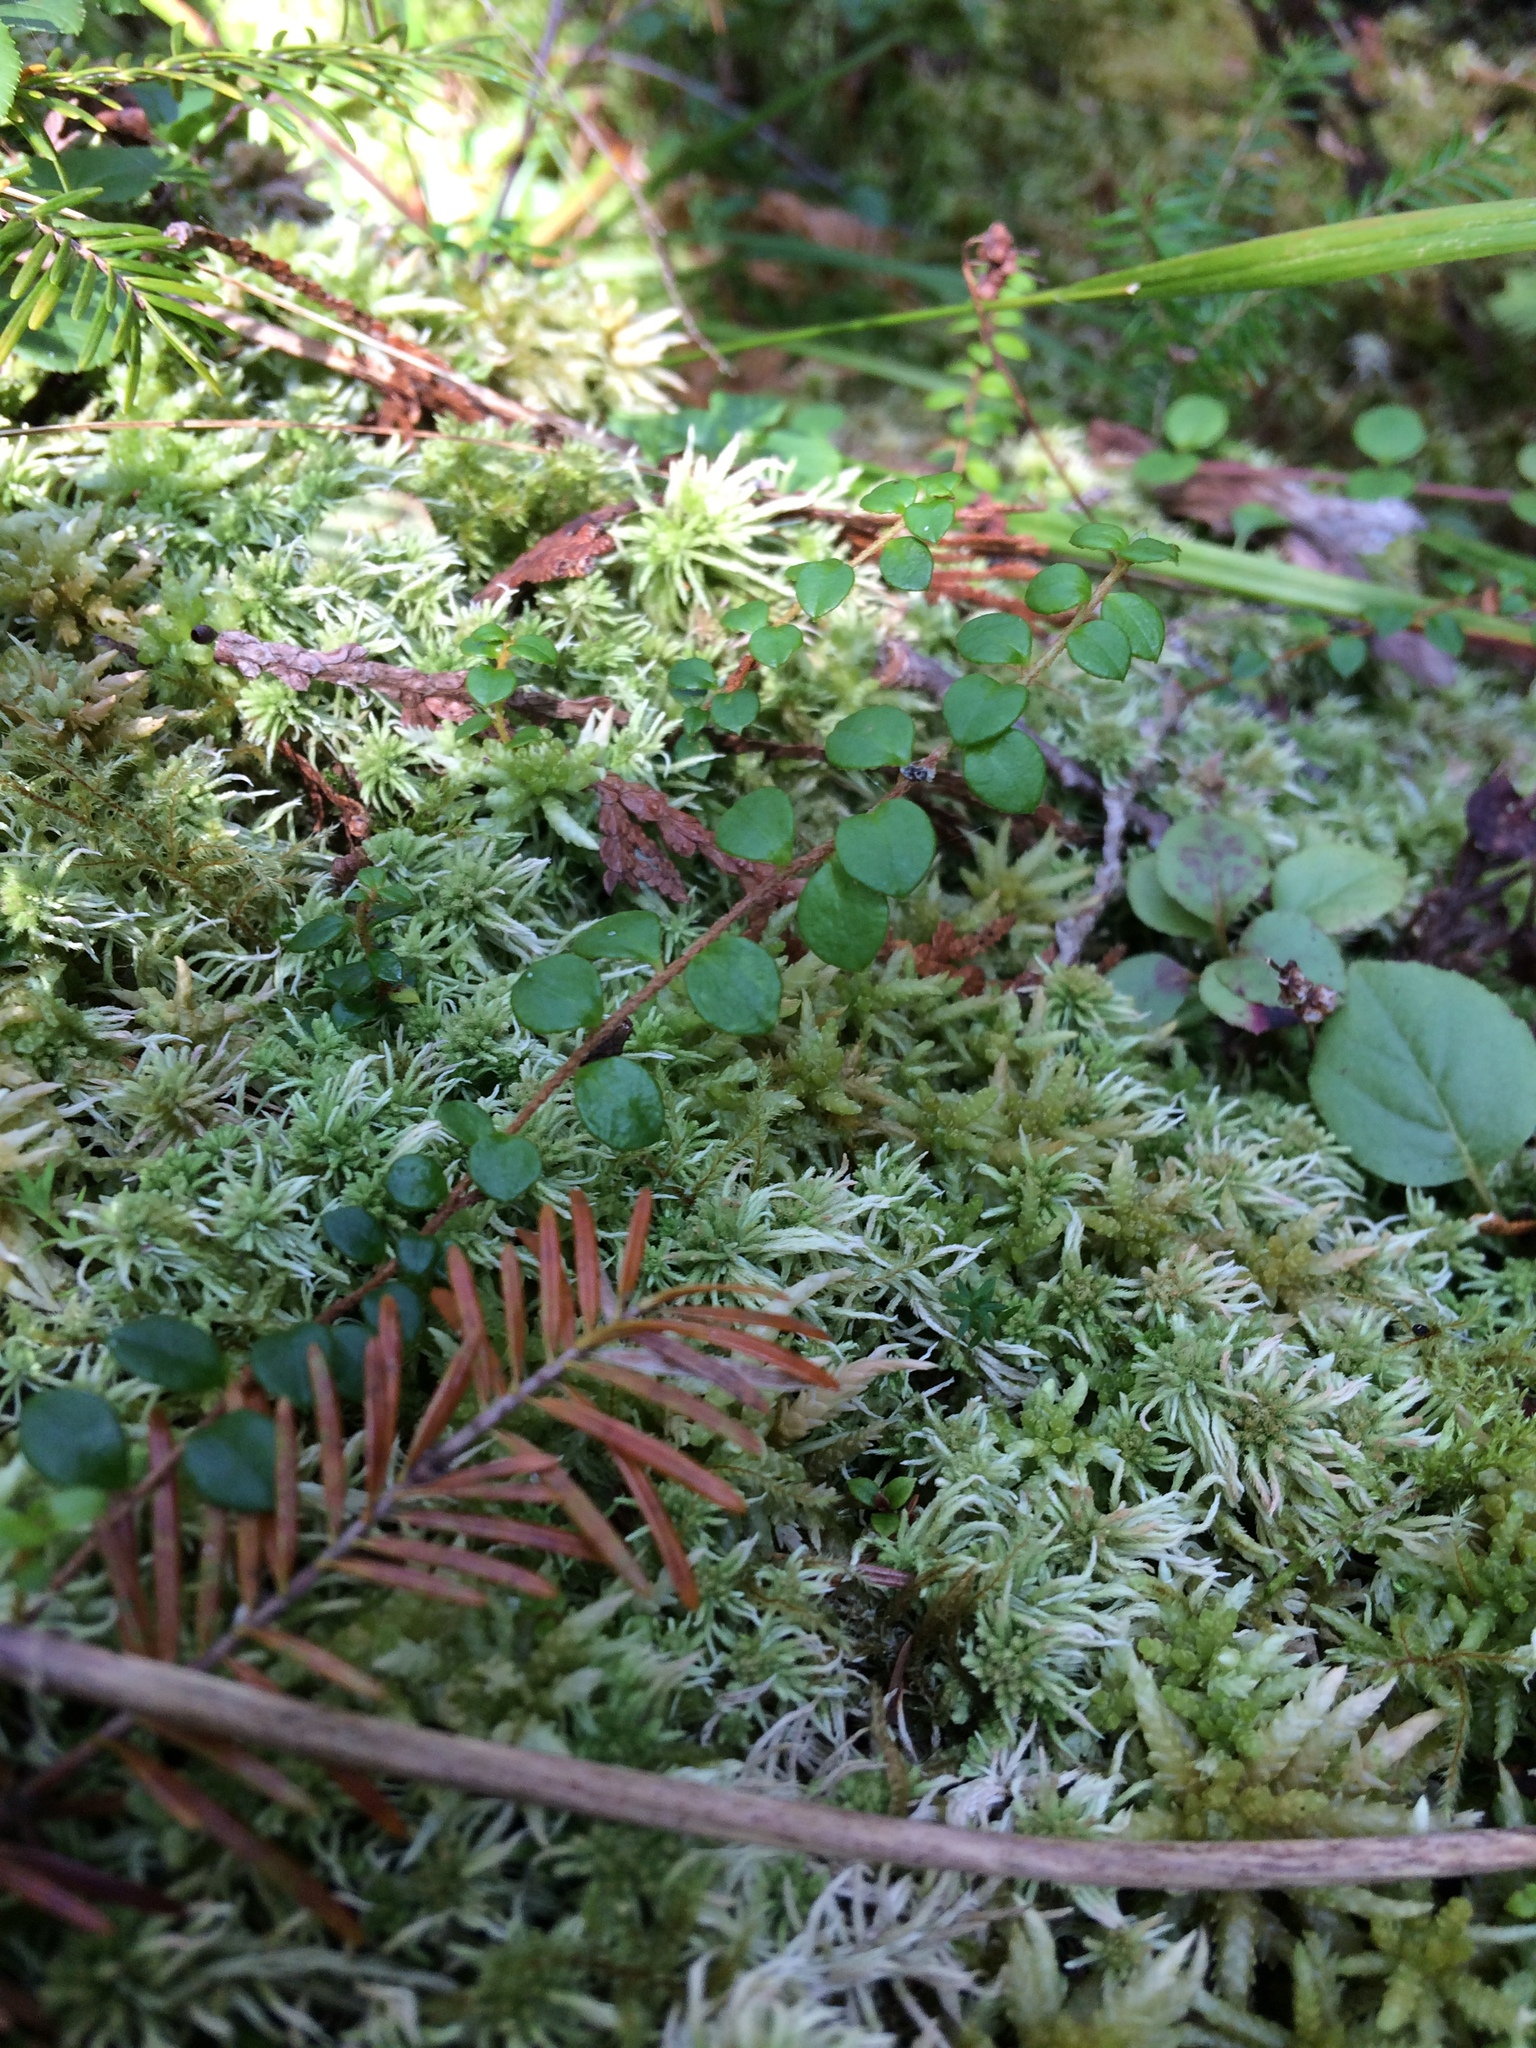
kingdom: Plantae
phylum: Tracheophyta
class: Magnoliopsida
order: Ericales
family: Ericaceae
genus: Gaultheria
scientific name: Gaultheria hispidula
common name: Cancer wintergreen
